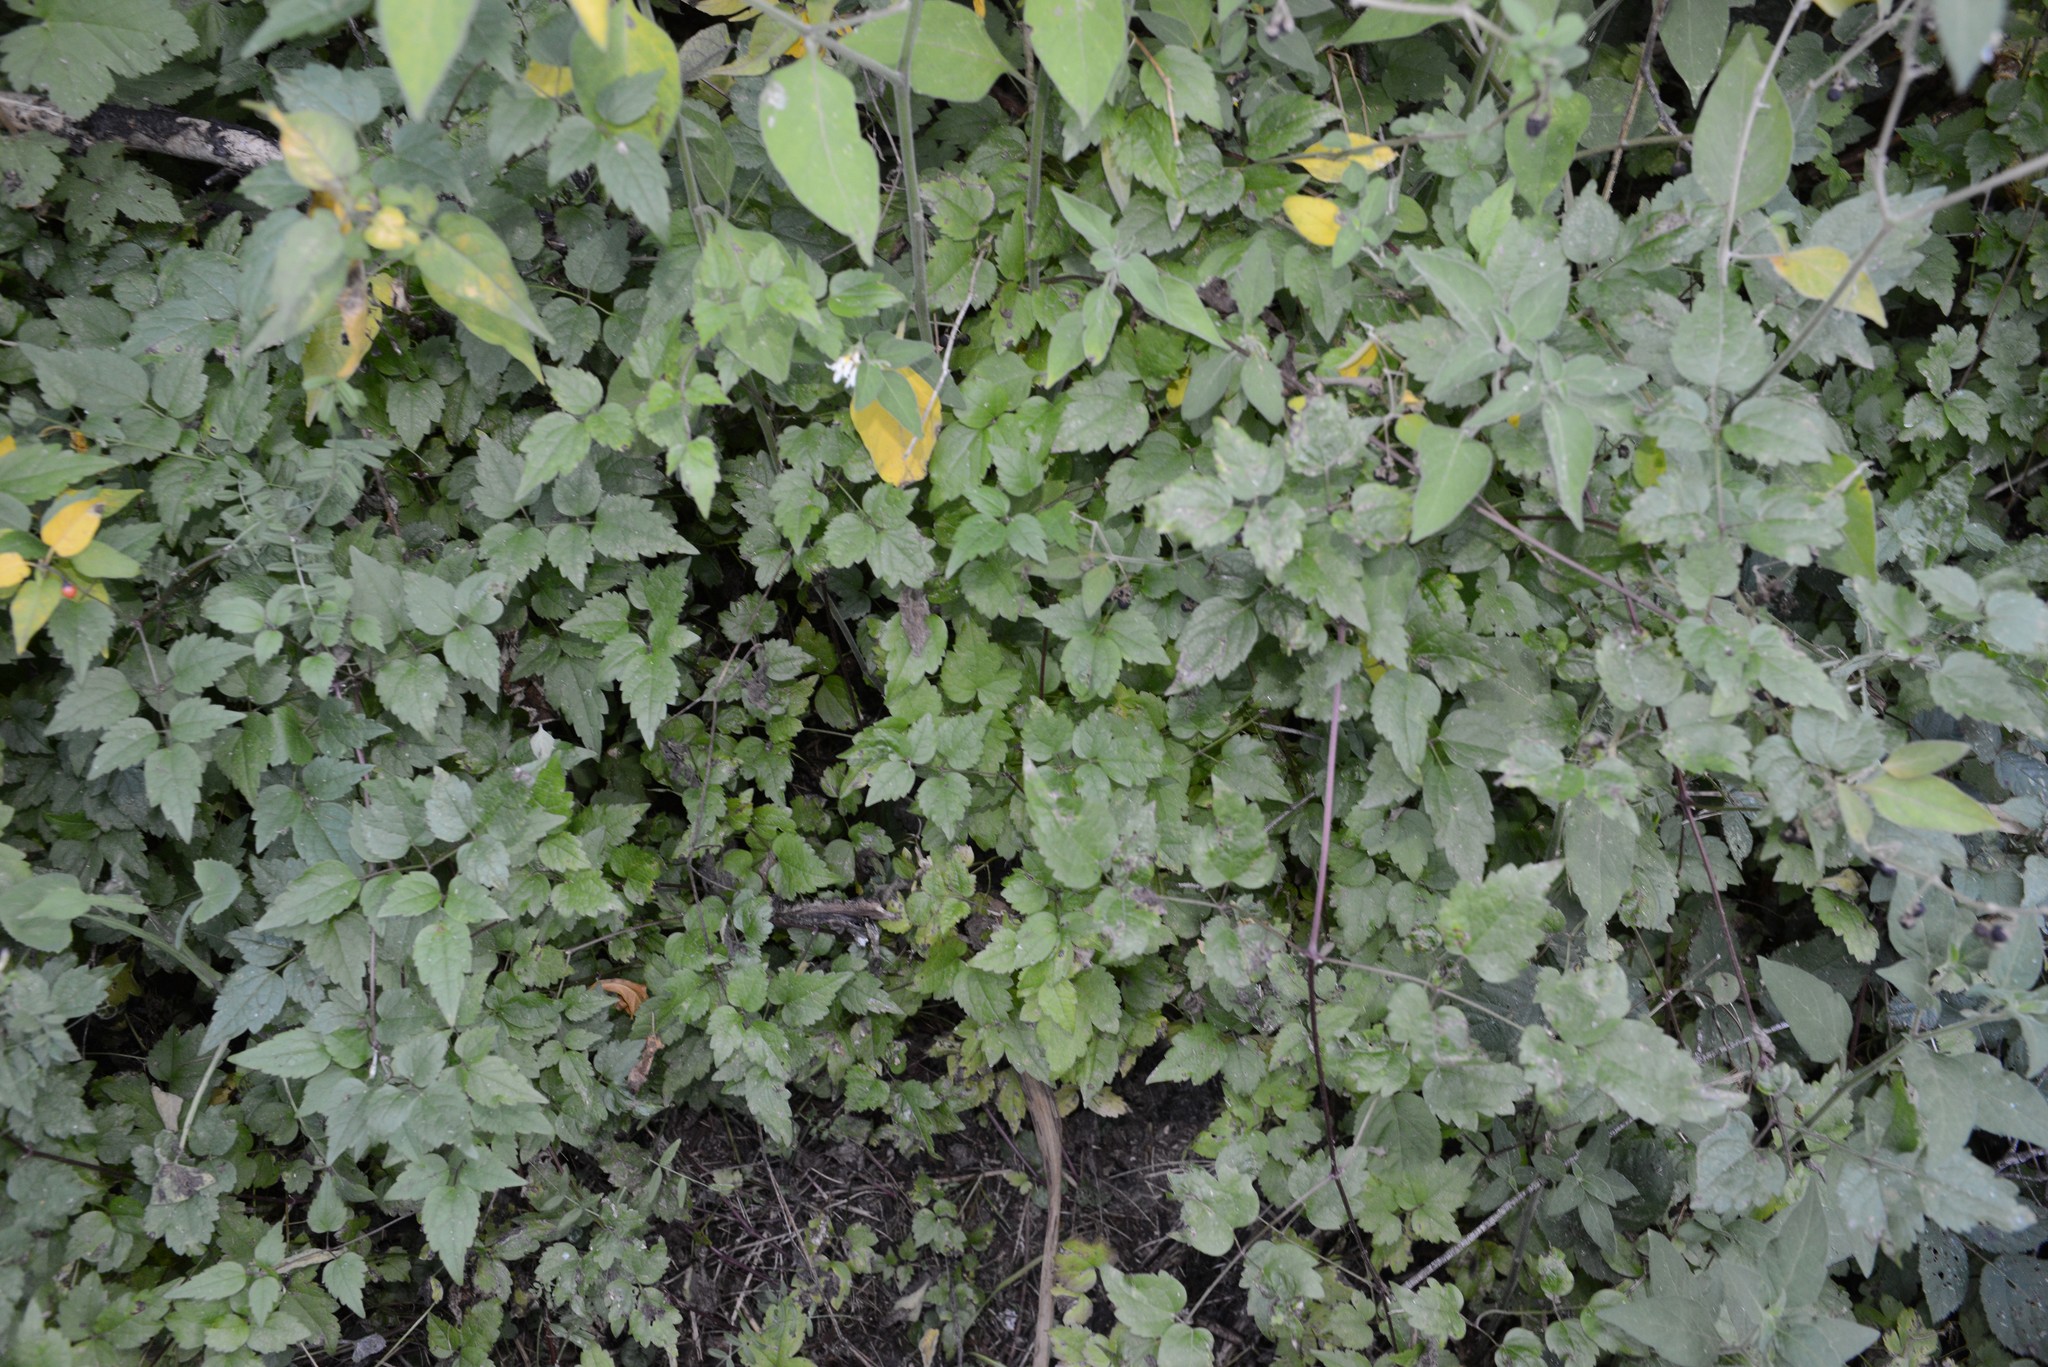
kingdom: Plantae
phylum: Tracheophyta
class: Magnoliopsida
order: Ranunculales
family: Ranunculaceae
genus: Clematis
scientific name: Clematis vitalba
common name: Evergreen clematis
